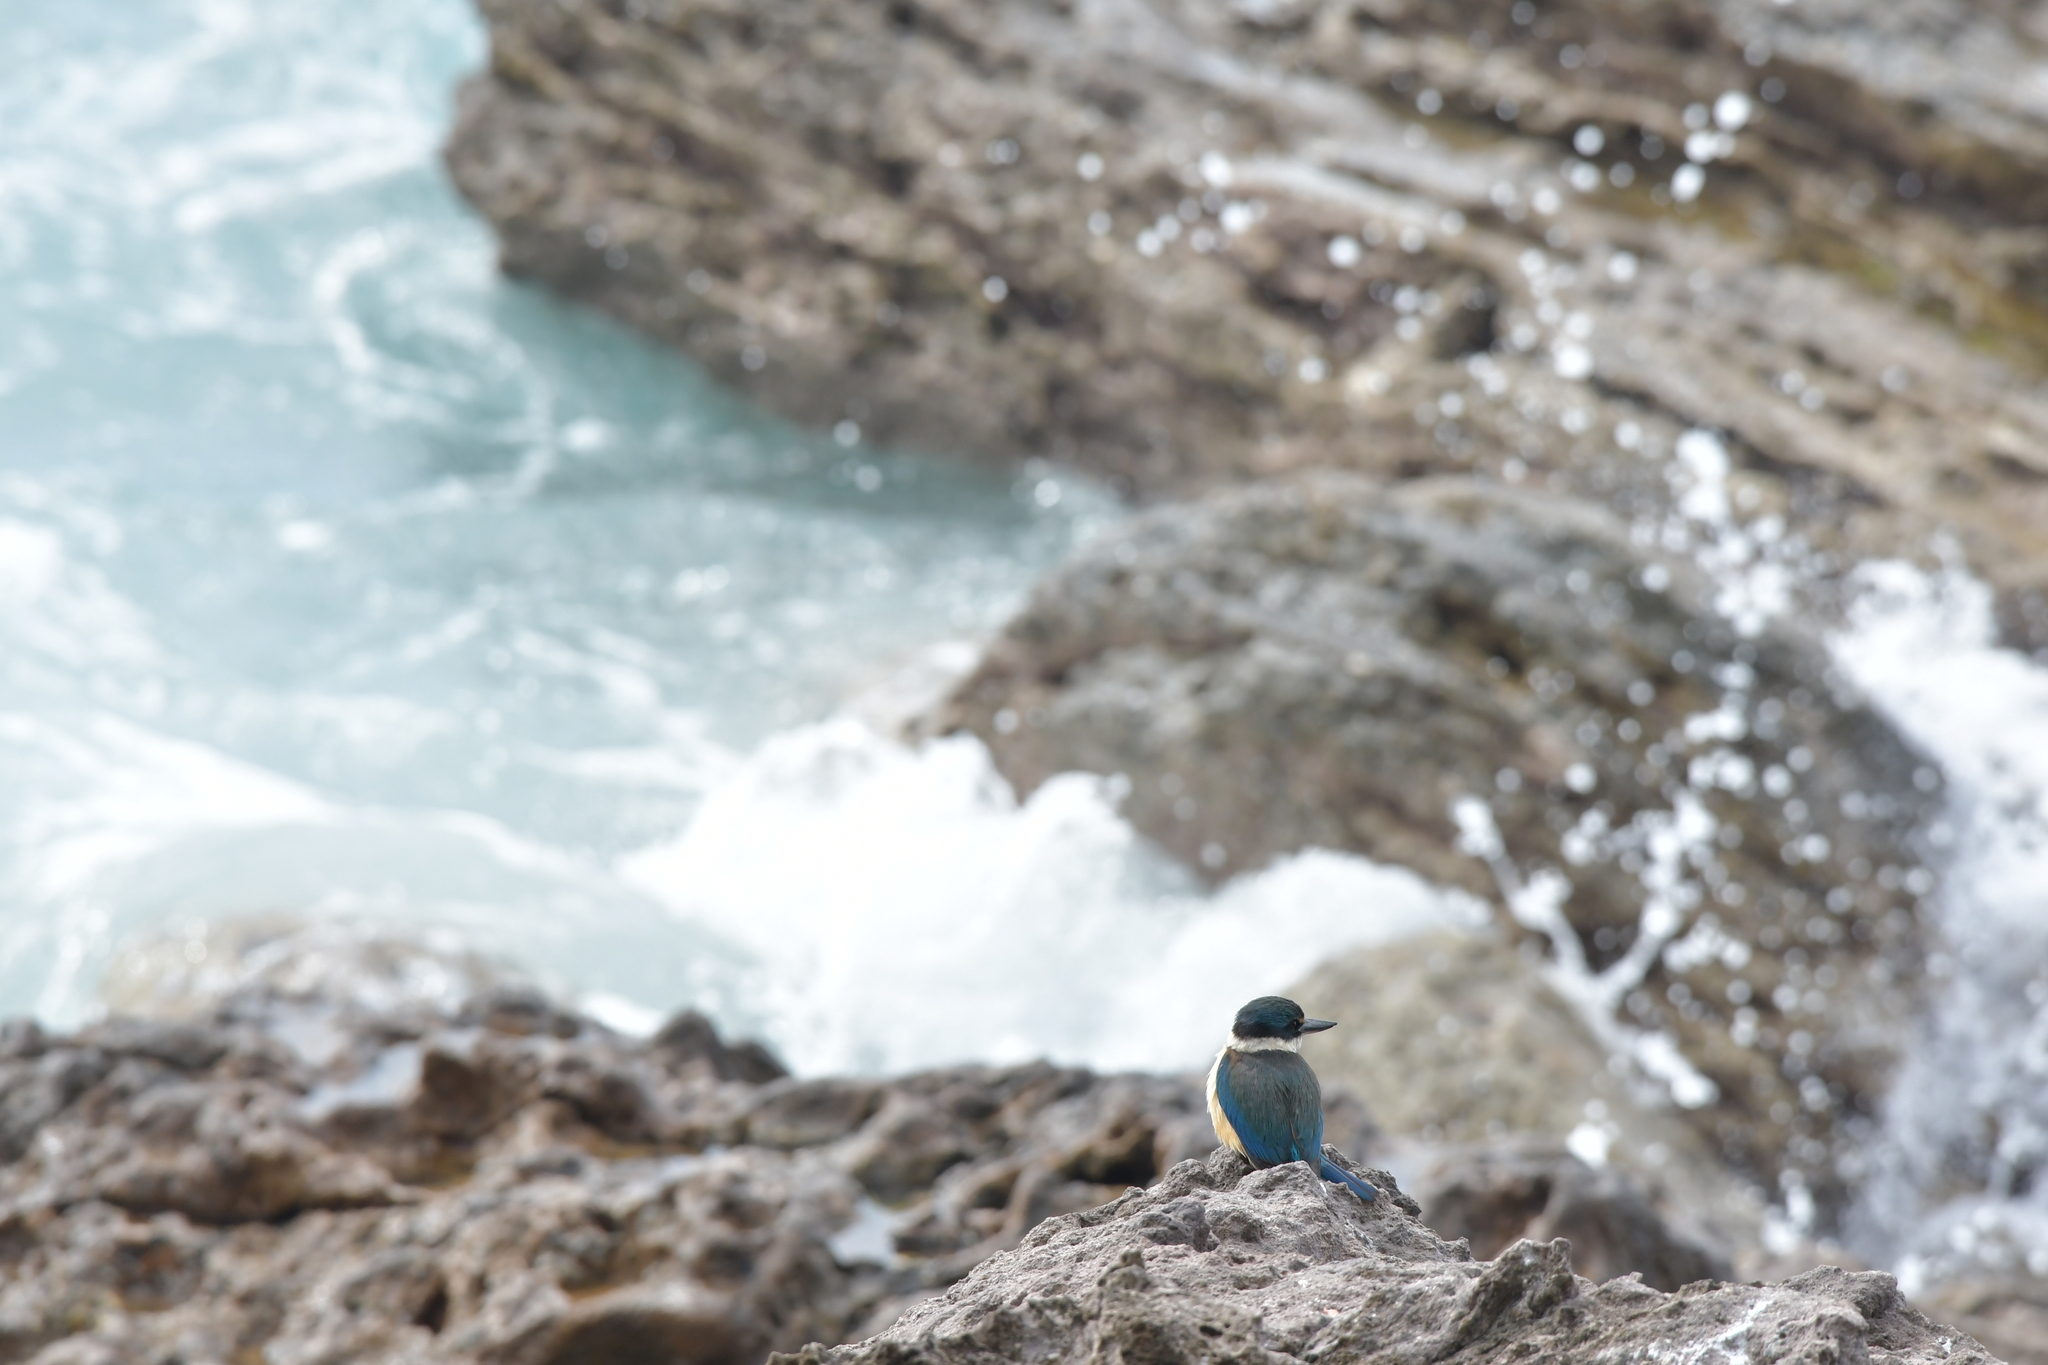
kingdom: Animalia
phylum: Chordata
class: Aves
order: Coraciiformes
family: Alcedinidae
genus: Todiramphus
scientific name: Todiramphus sanctus
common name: Sacred kingfisher
